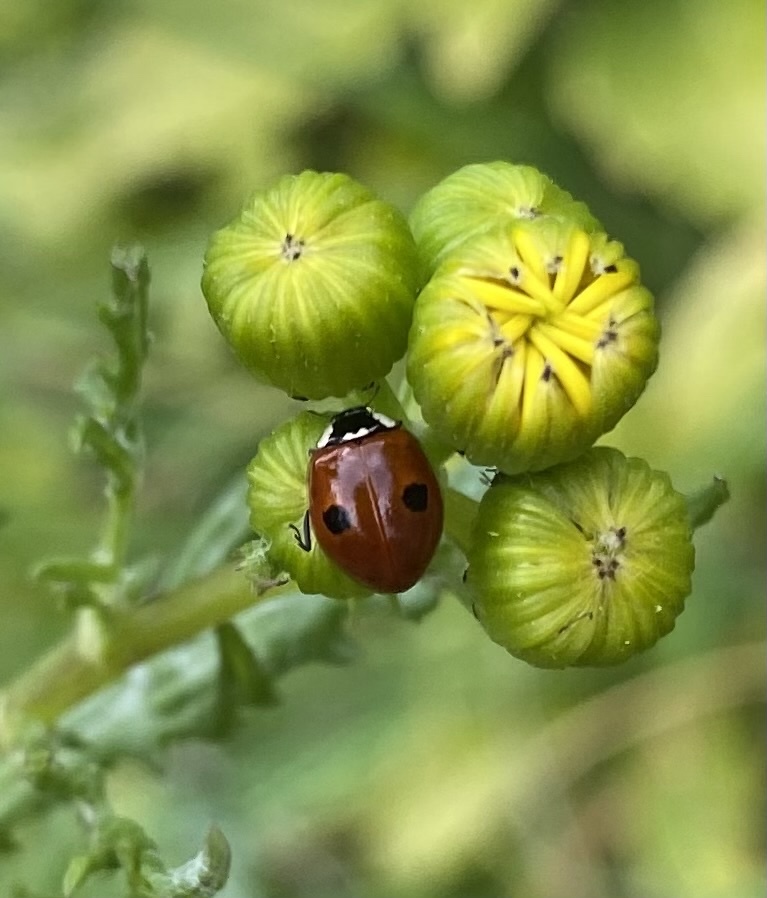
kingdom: Animalia
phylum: Arthropoda
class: Insecta
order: Coleoptera
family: Coccinellidae
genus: Adalia
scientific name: Adalia bipunctata
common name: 2-spot ladybird
